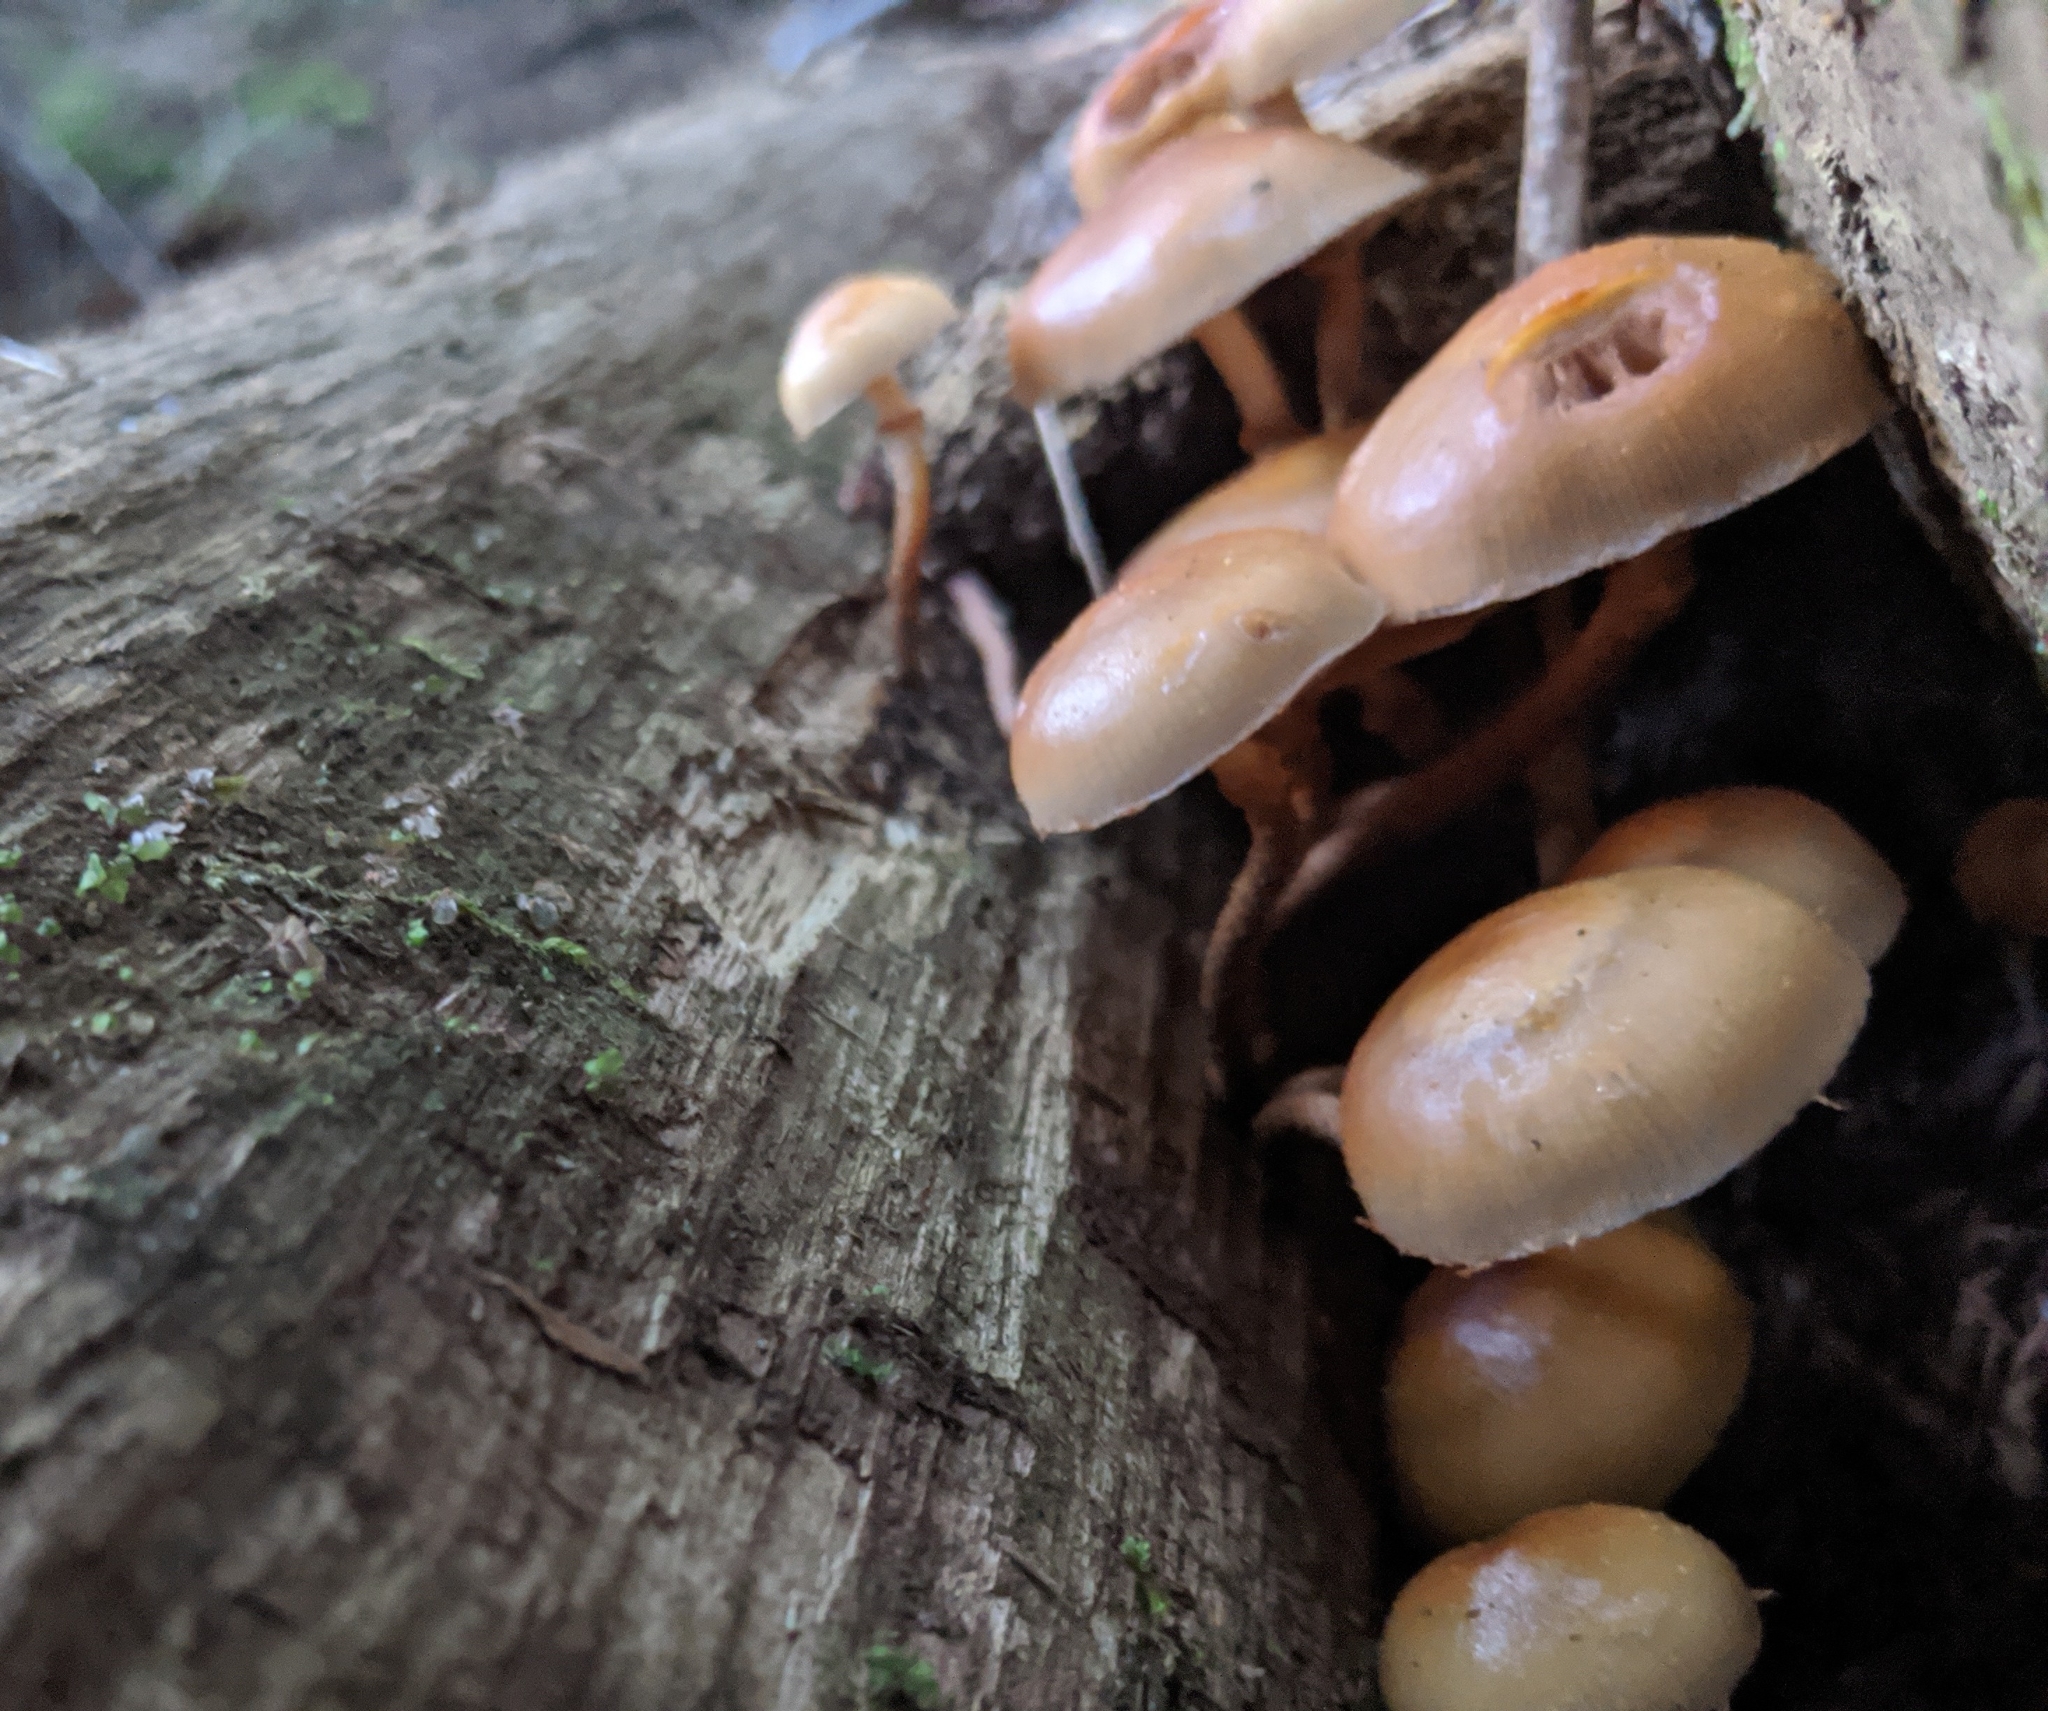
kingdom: Fungi
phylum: Basidiomycota
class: Agaricomycetes
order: Agaricales
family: Strophariaceae
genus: Kuehneromyces
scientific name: Kuehneromyces mutabilis
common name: Sheathed woodtuft
